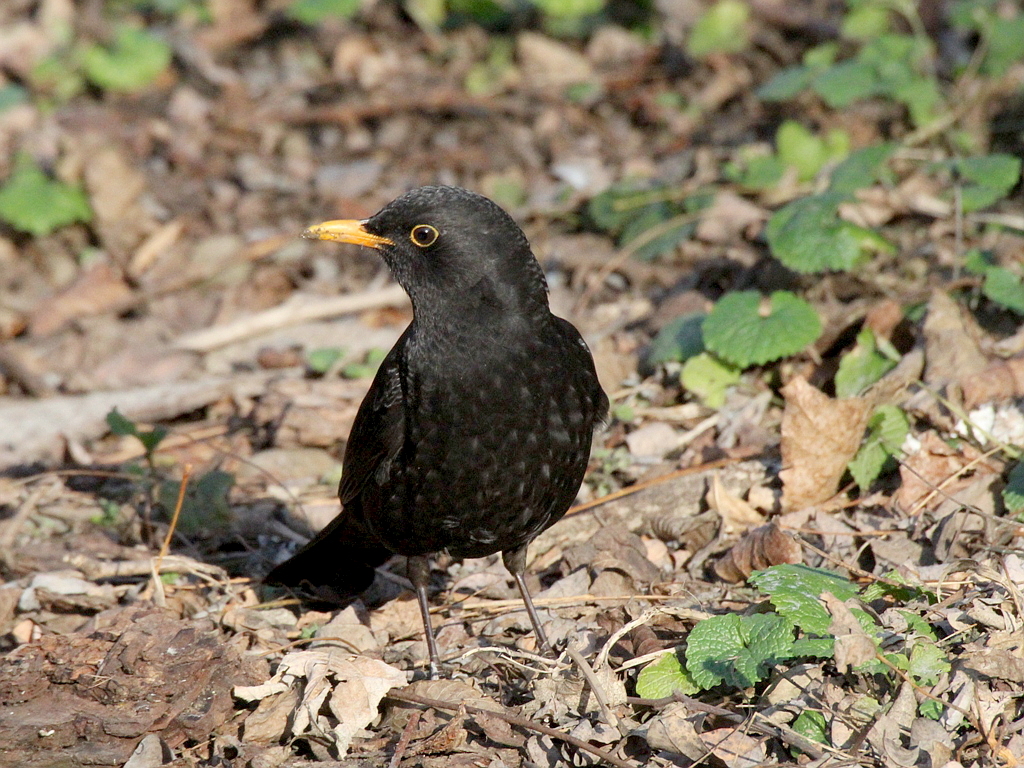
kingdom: Animalia
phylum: Chordata
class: Aves
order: Passeriformes
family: Turdidae
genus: Turdus
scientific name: Turdus merula
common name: Common blackbird
